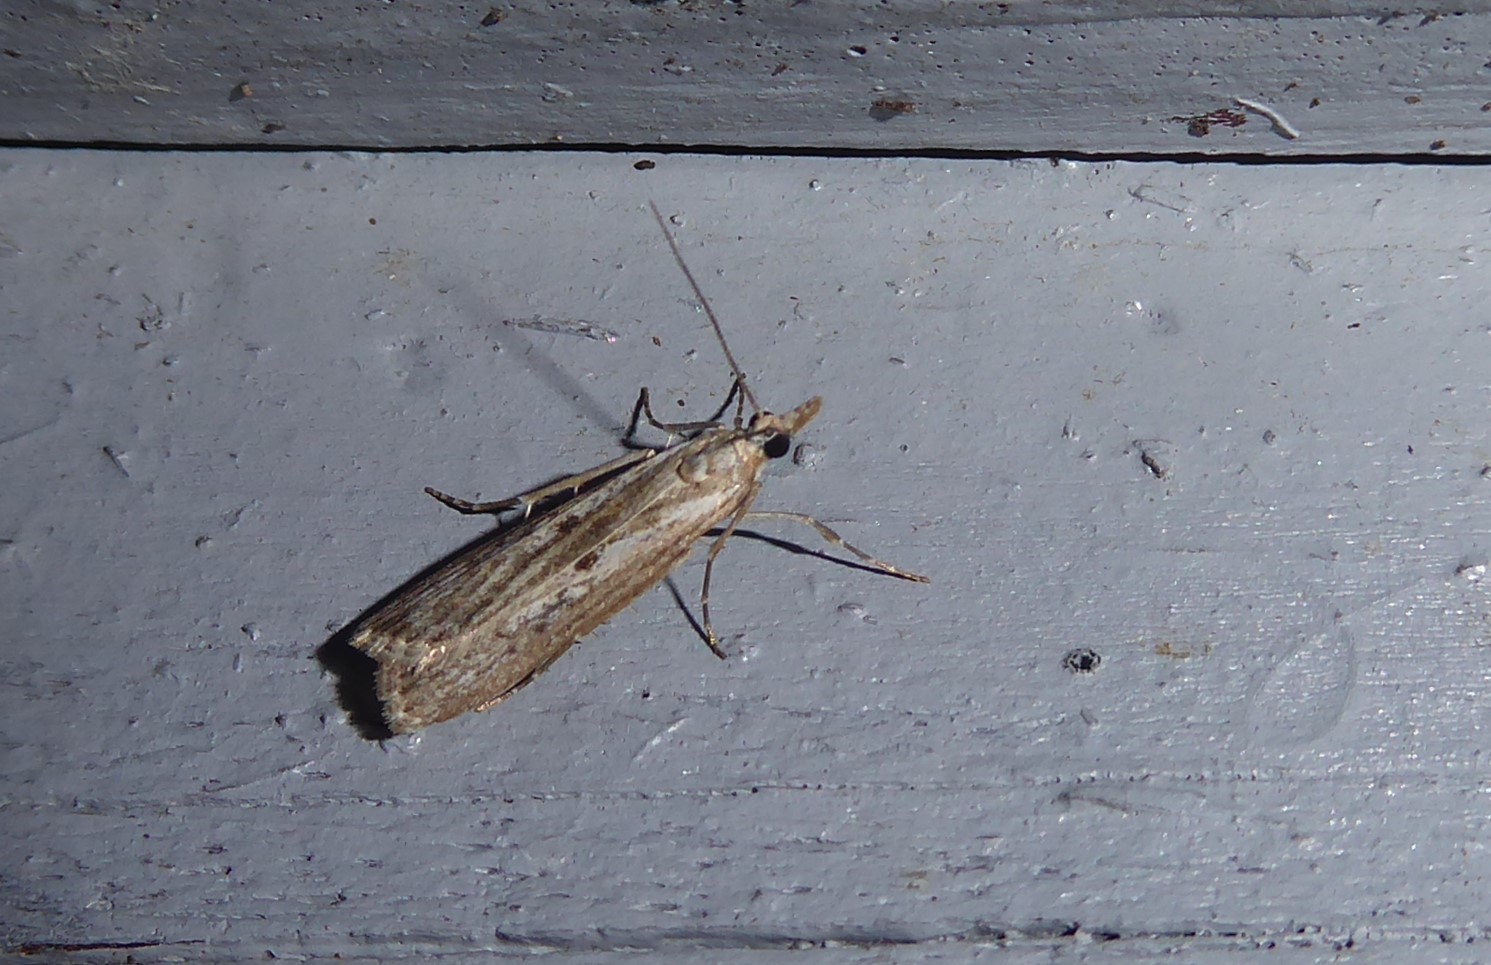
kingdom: Animalia
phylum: Arthropoda
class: Insecta
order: Lepidoptera
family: Crambidae
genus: Eudonia
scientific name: Eudonia leptalea
